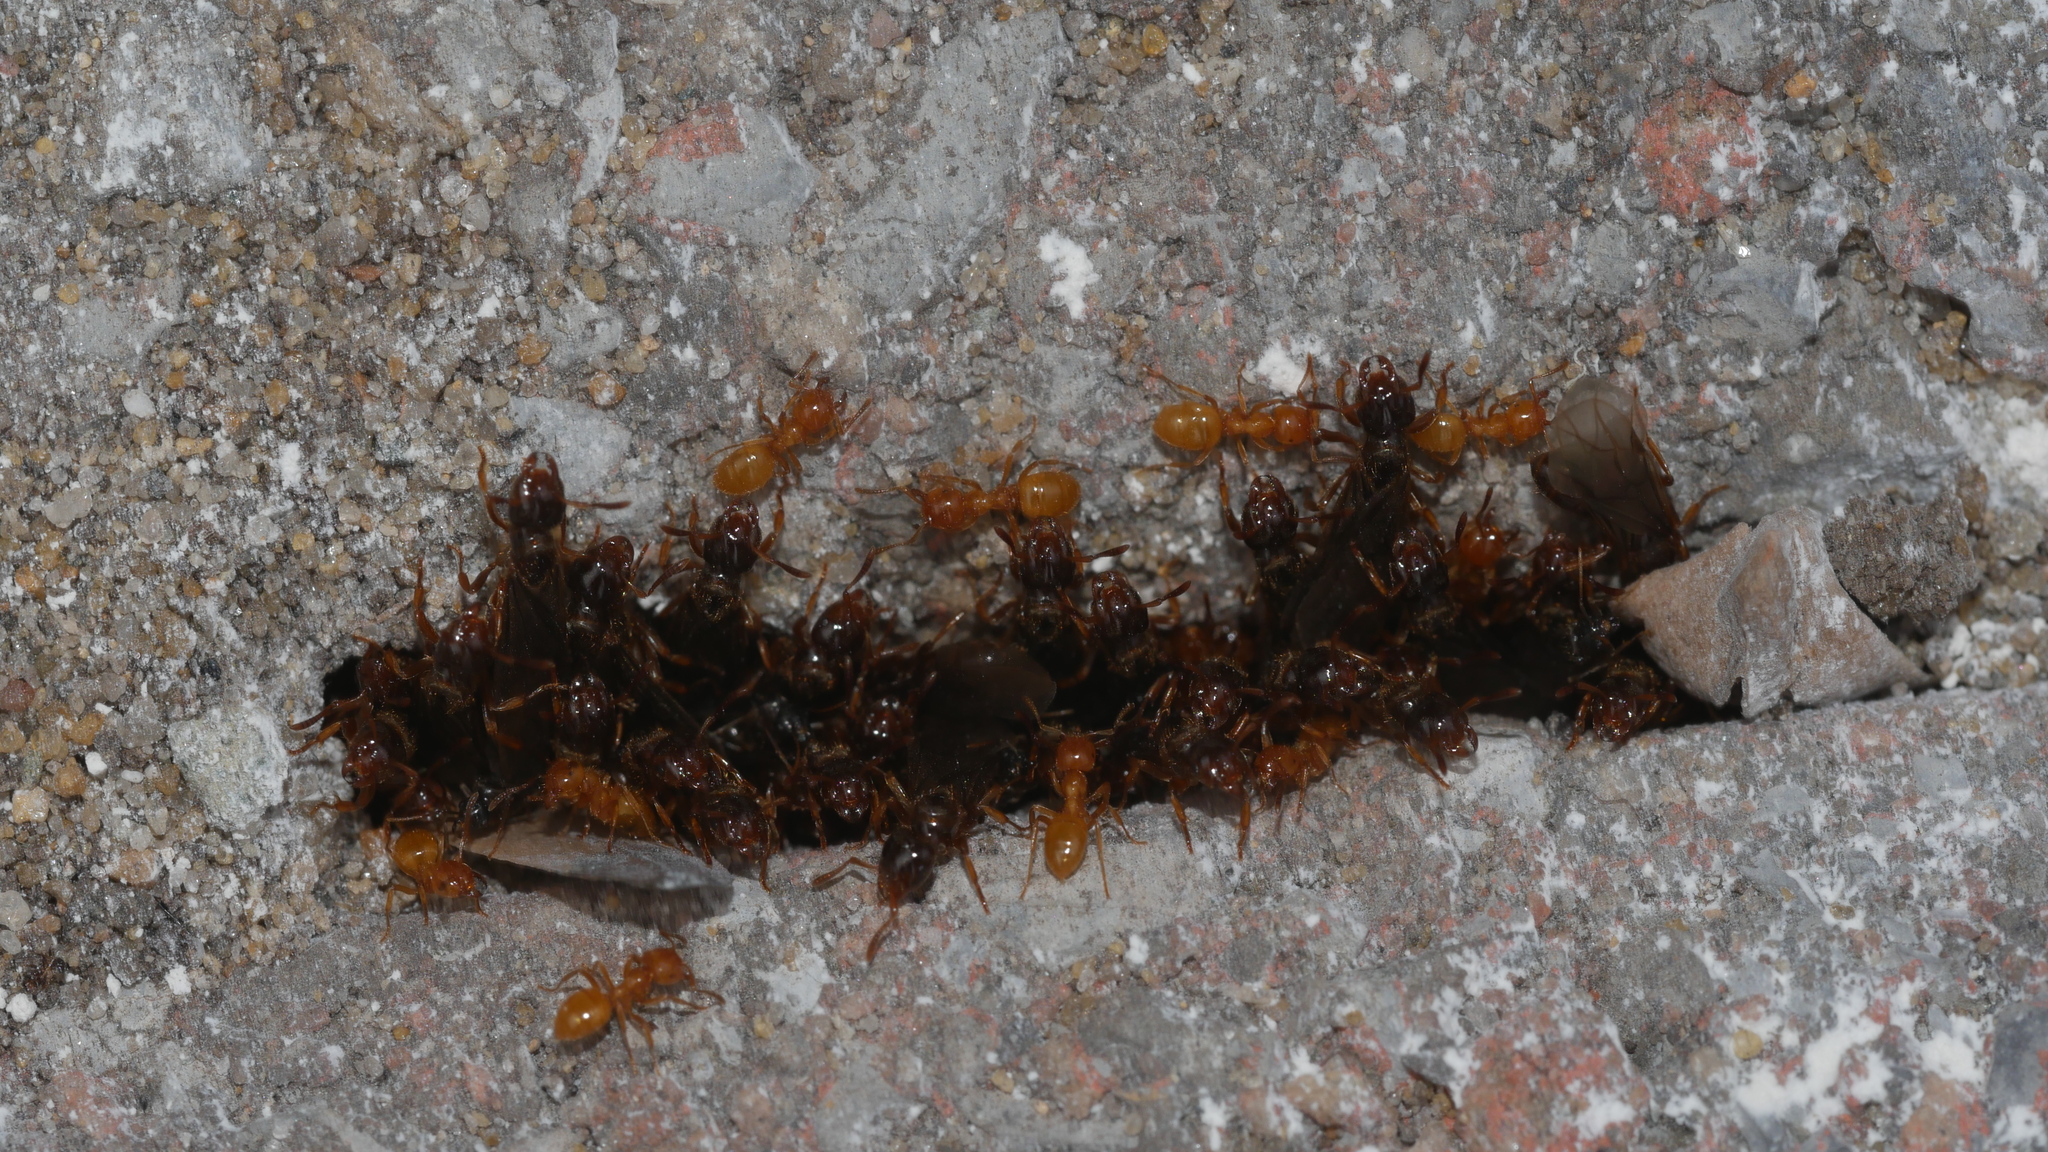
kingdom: Animalia
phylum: Arthropoda
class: Insecta
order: Hymenoptera
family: Formicidae
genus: Lasius
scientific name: Lasius claviger
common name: Common citronella ant
